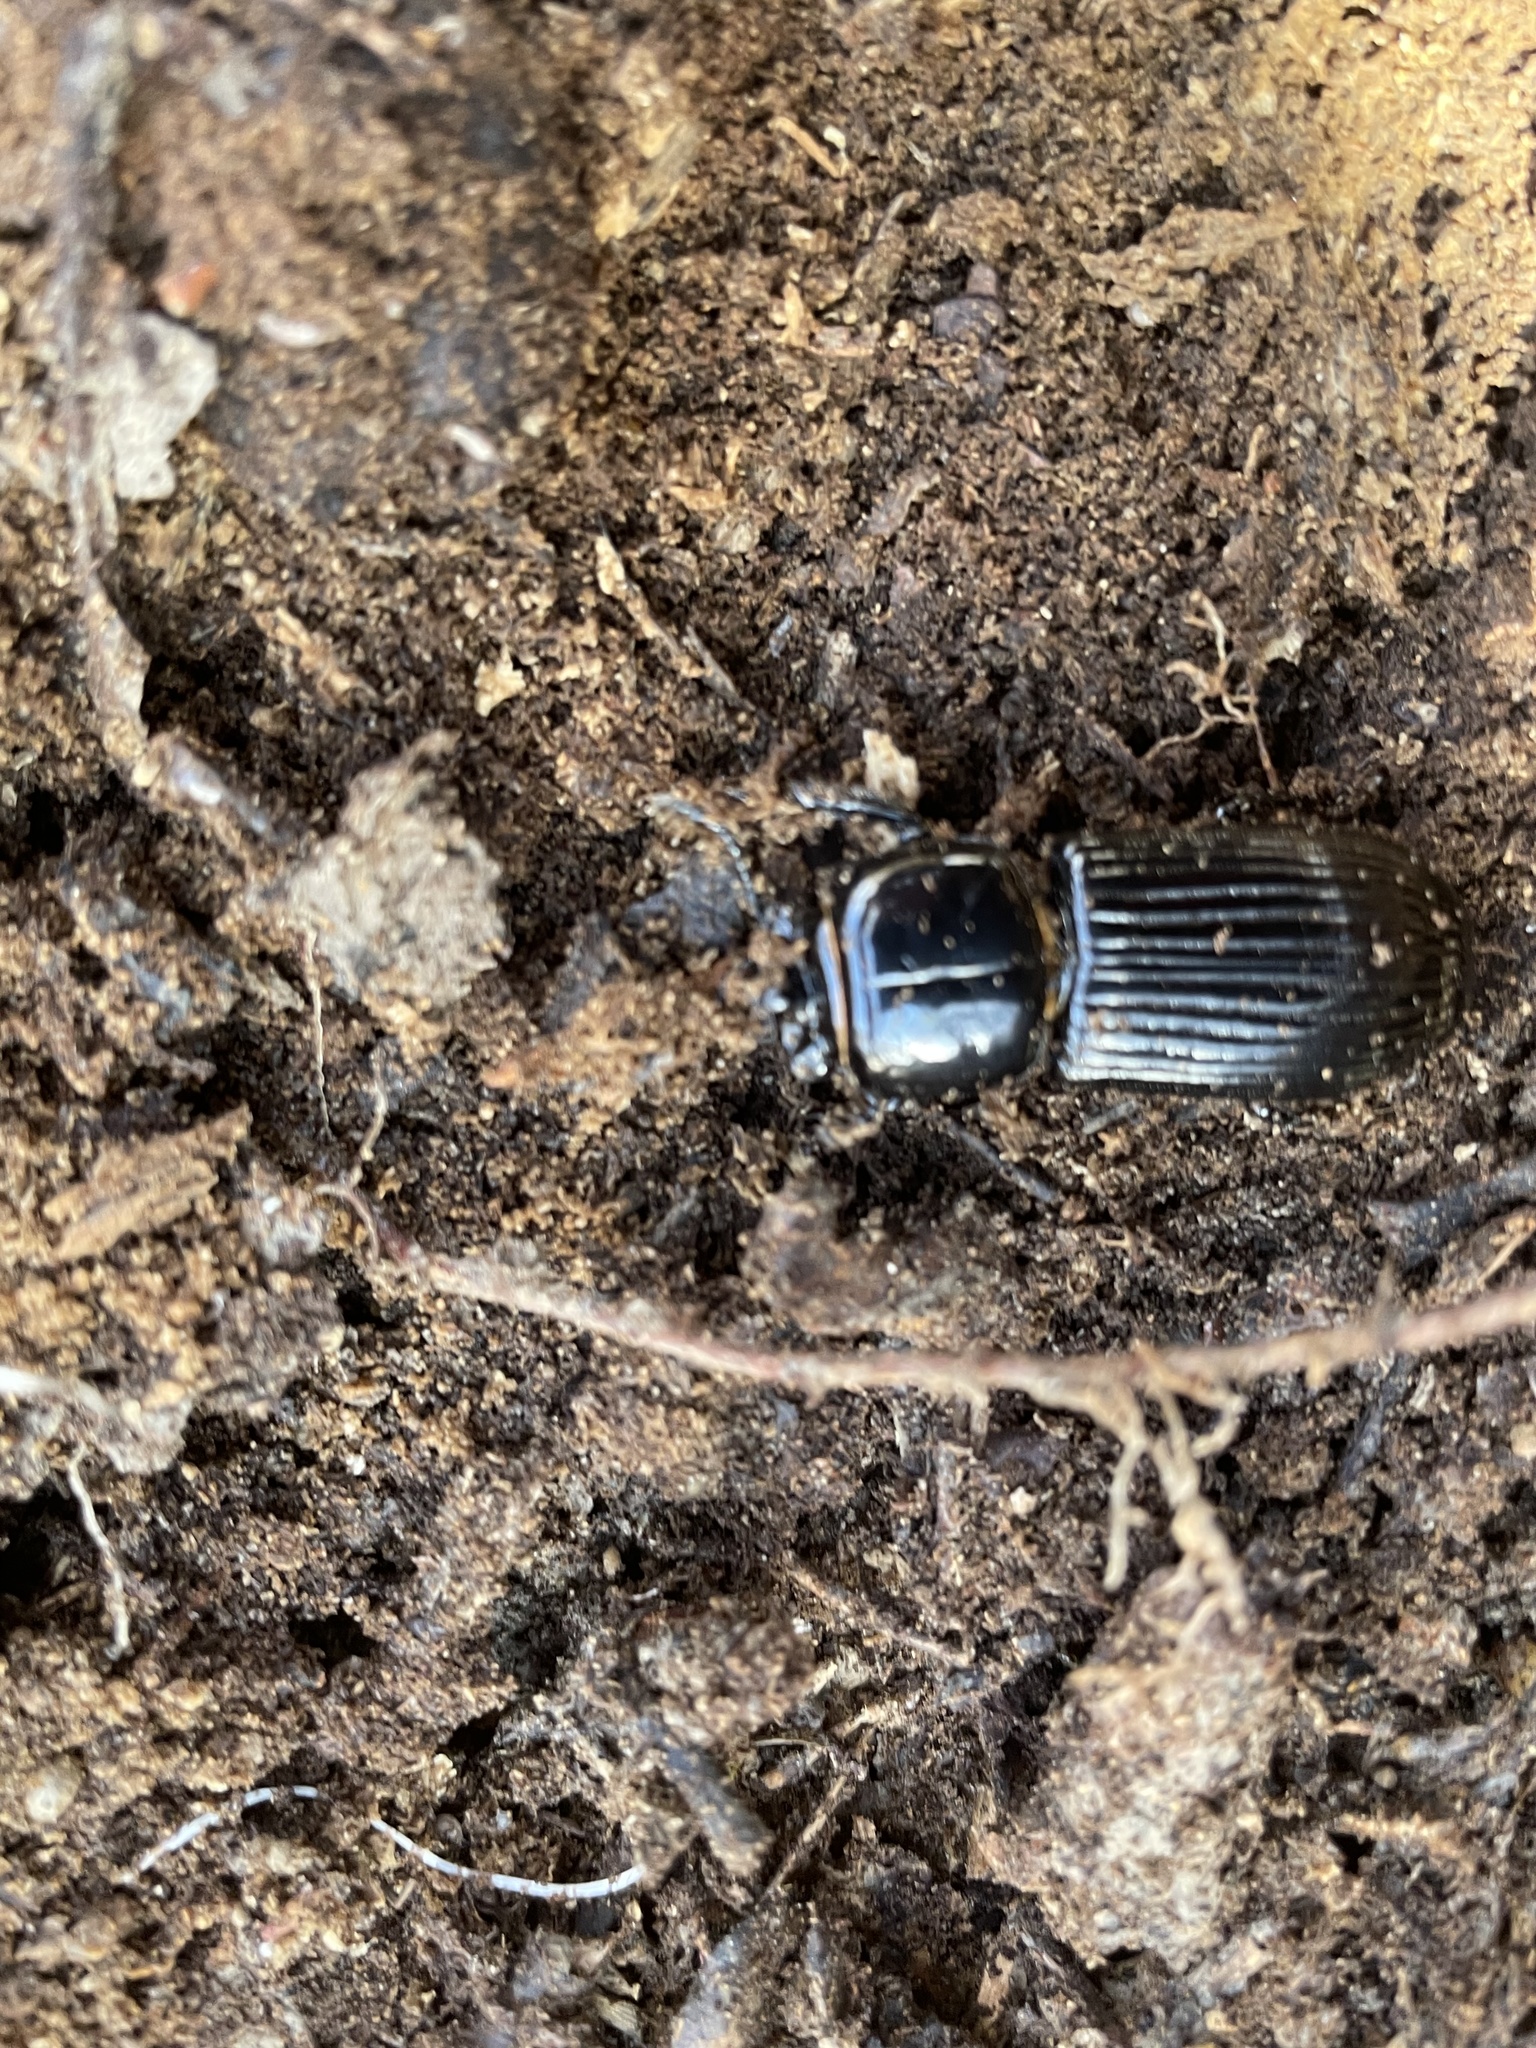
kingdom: Animalia
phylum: Arthropoda
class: Insecta
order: Coleoptera
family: Passalidae
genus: Odontotaenius
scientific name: Odontotaenius disjunctus
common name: Patent leather beetle
